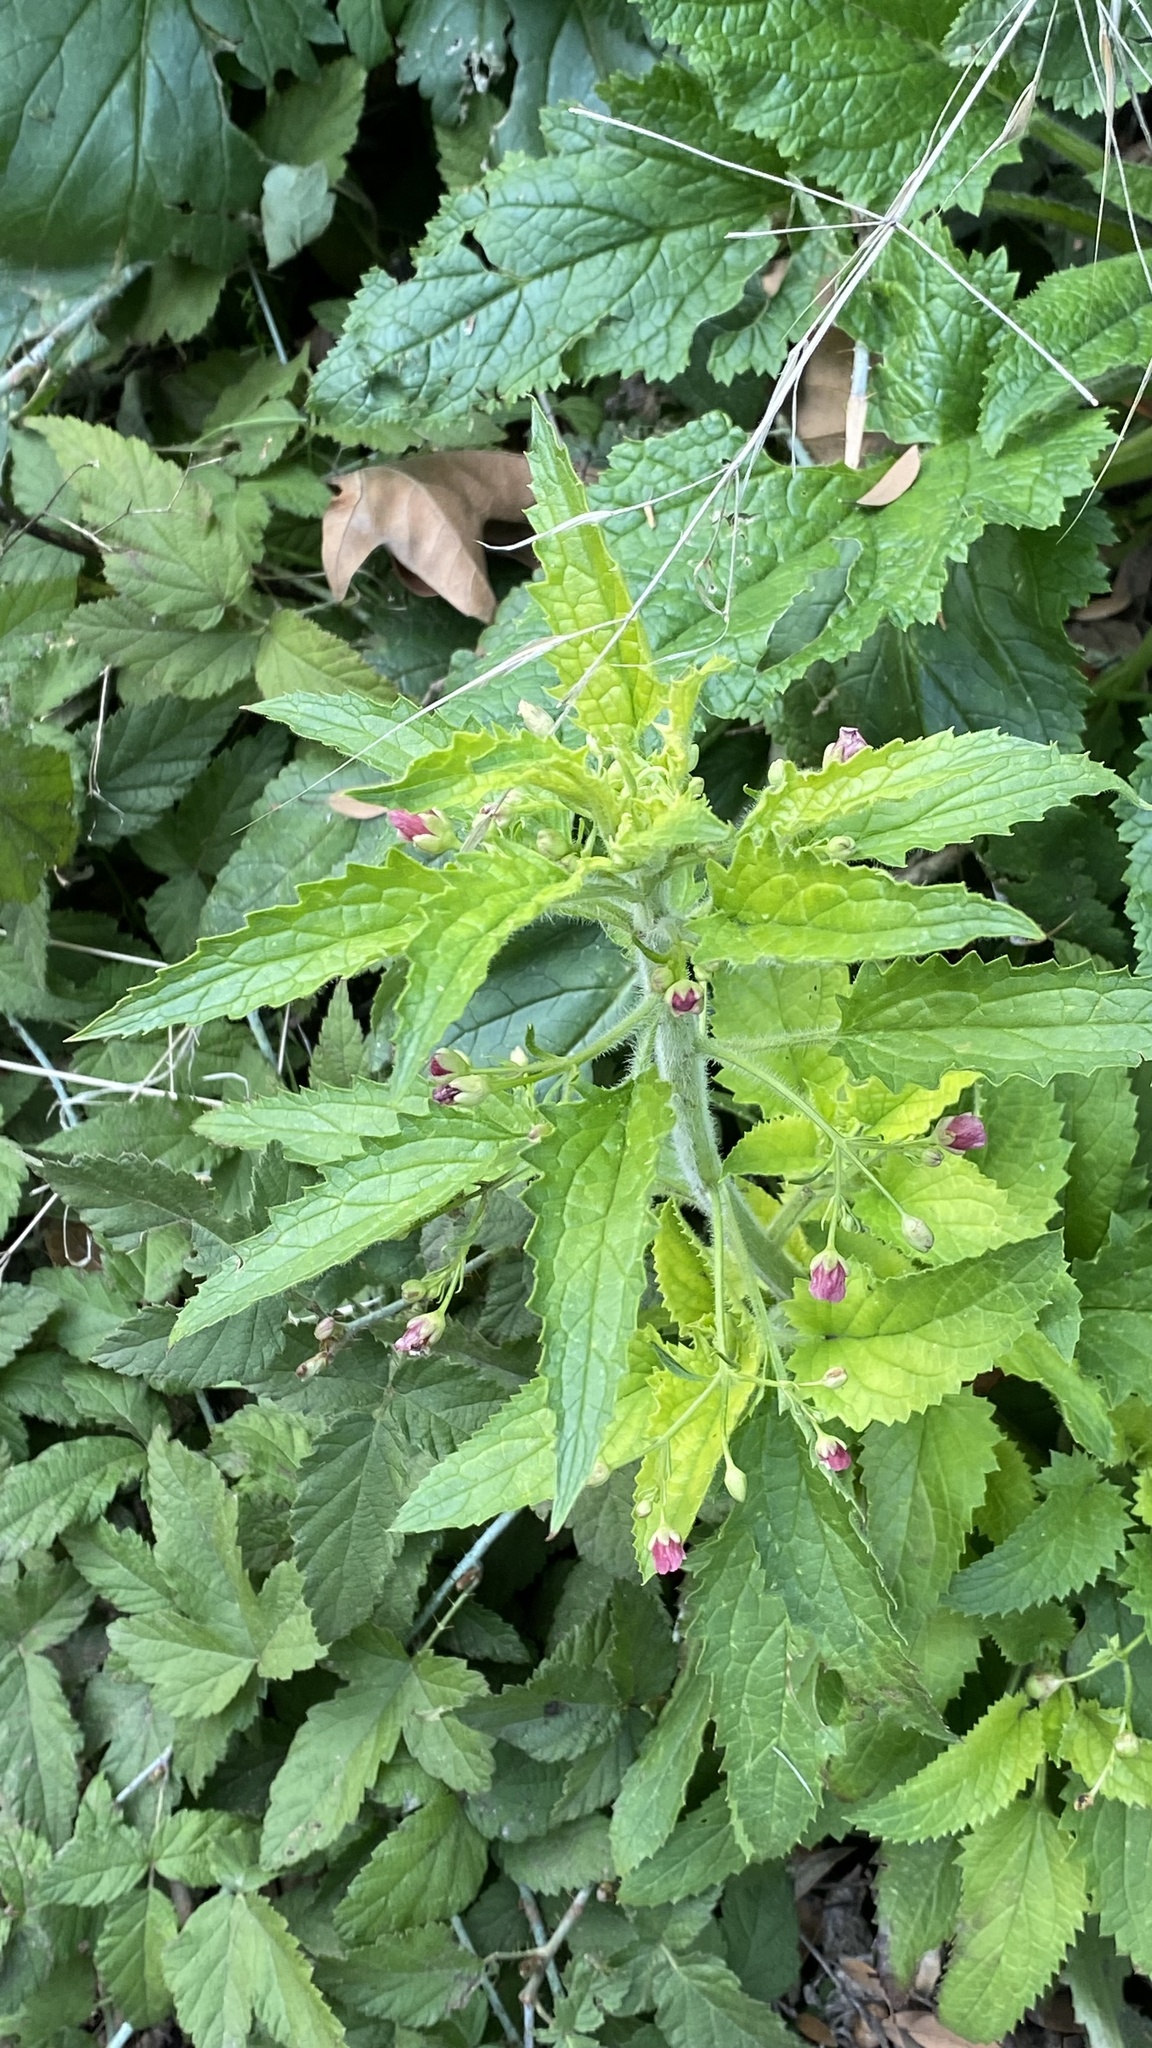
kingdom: Plantae
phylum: Tracheophyta
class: Magnoliopsida
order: Lamiales
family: Scrophulariaceae
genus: Scrophularia
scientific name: Scrophularia californica
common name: California figwort
